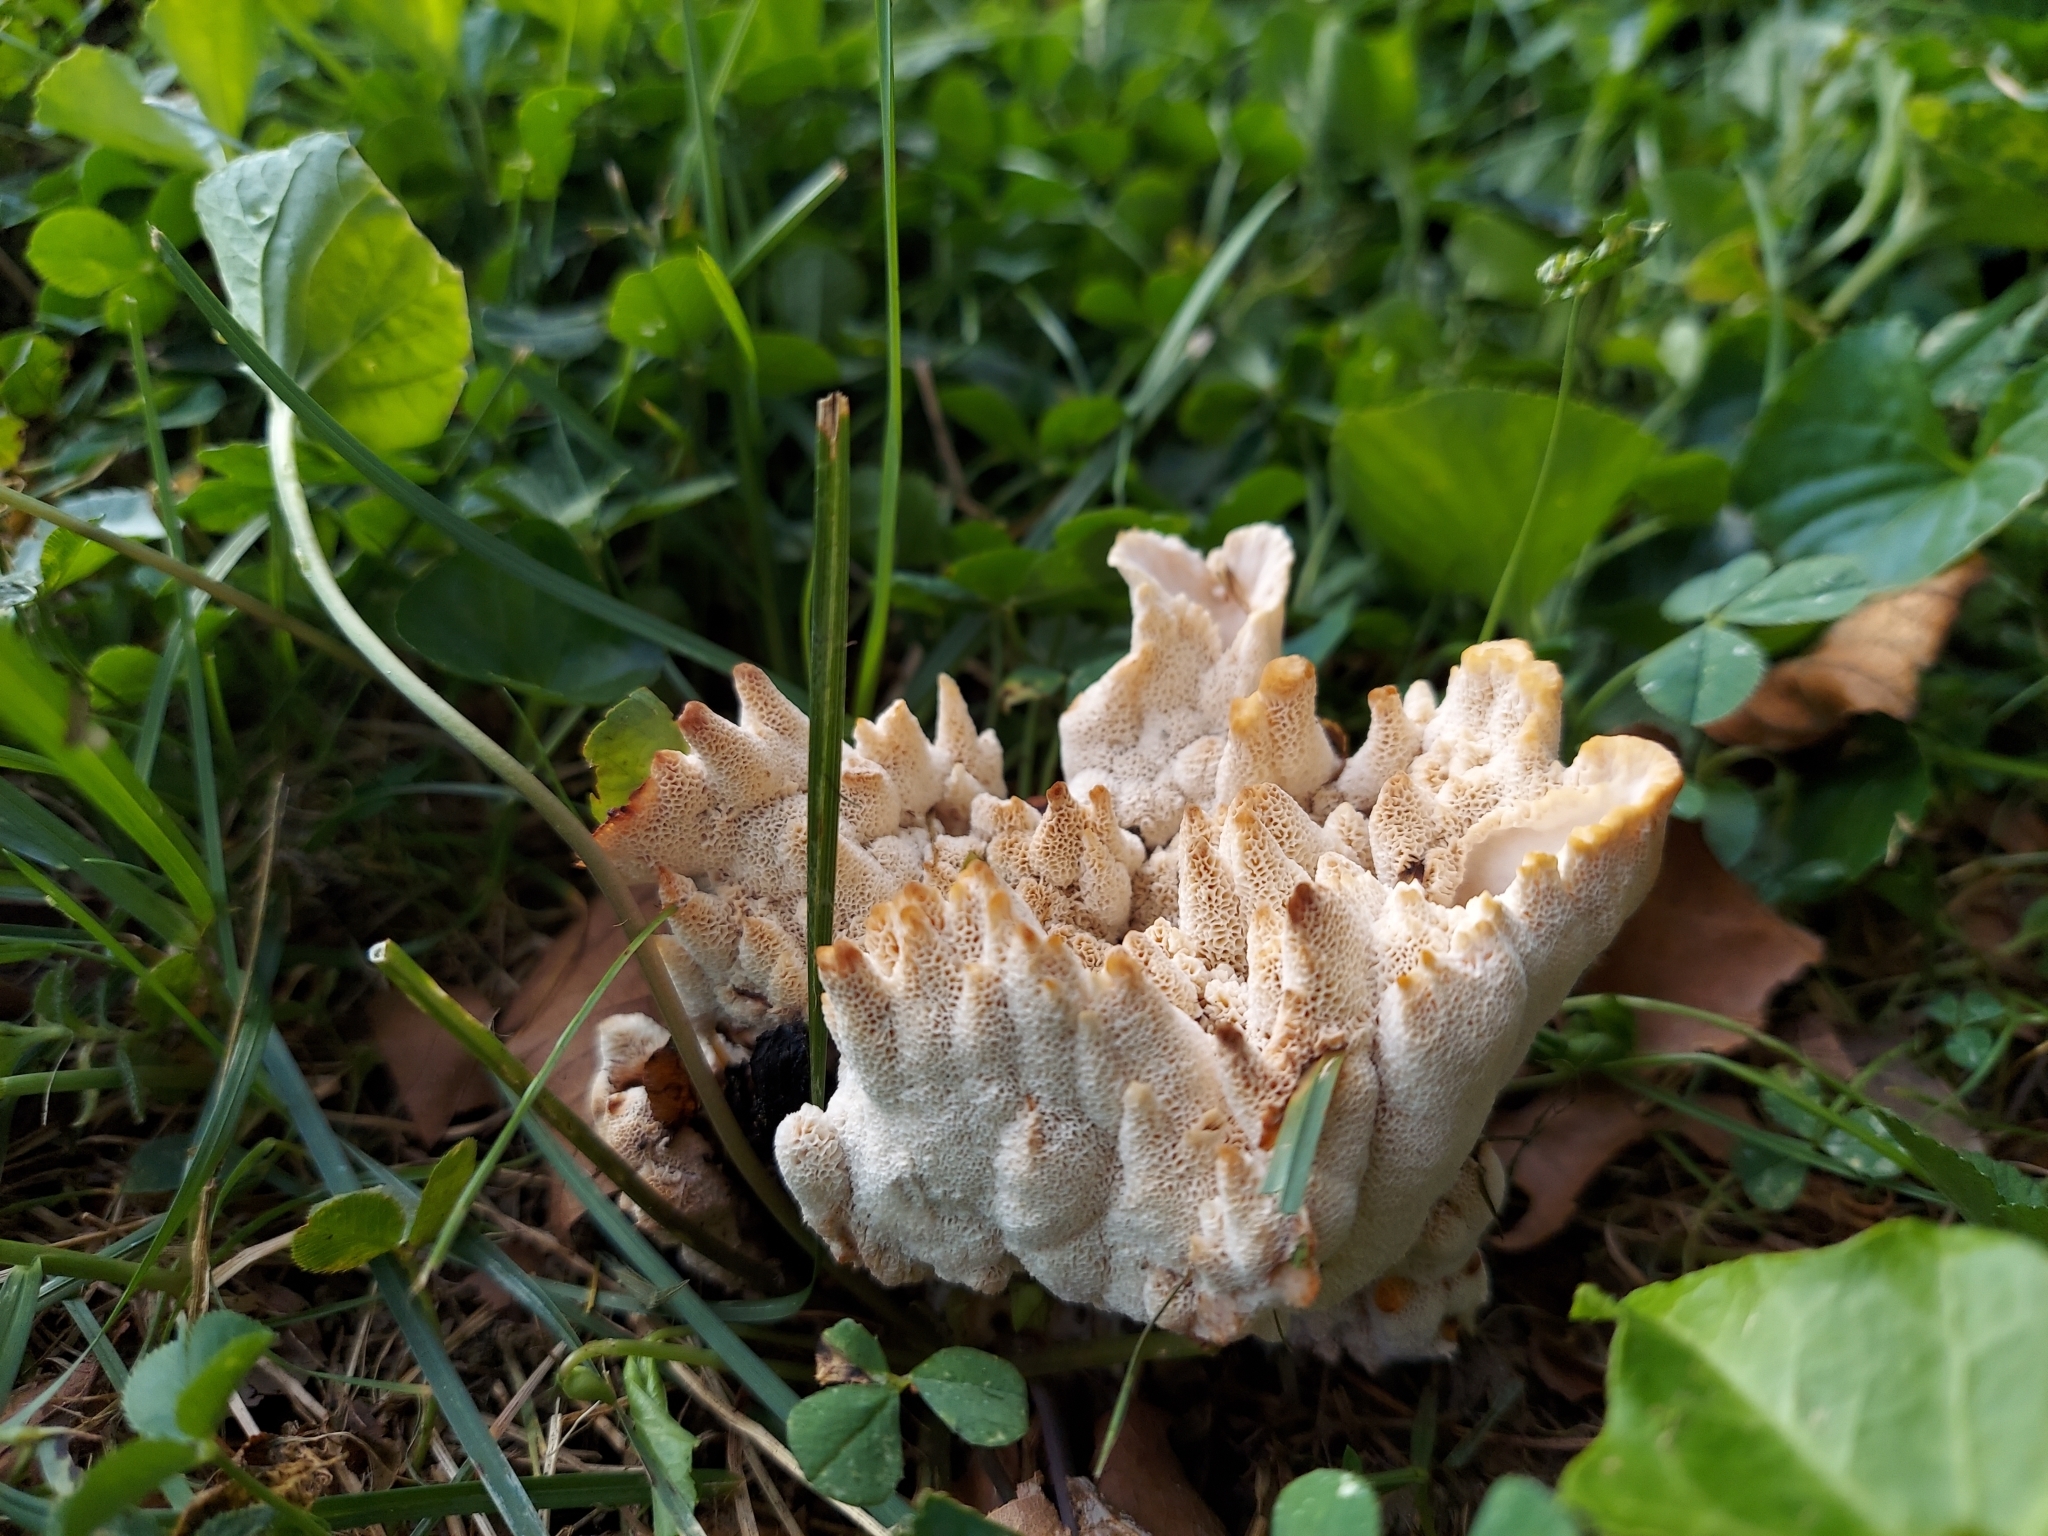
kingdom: Fungi
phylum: Basidiomycota
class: Agaricomycetes
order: Polyporales
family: Podoscyphaceae
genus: Abortiporus
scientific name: Abortiporus biennis
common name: Blushing rosette
